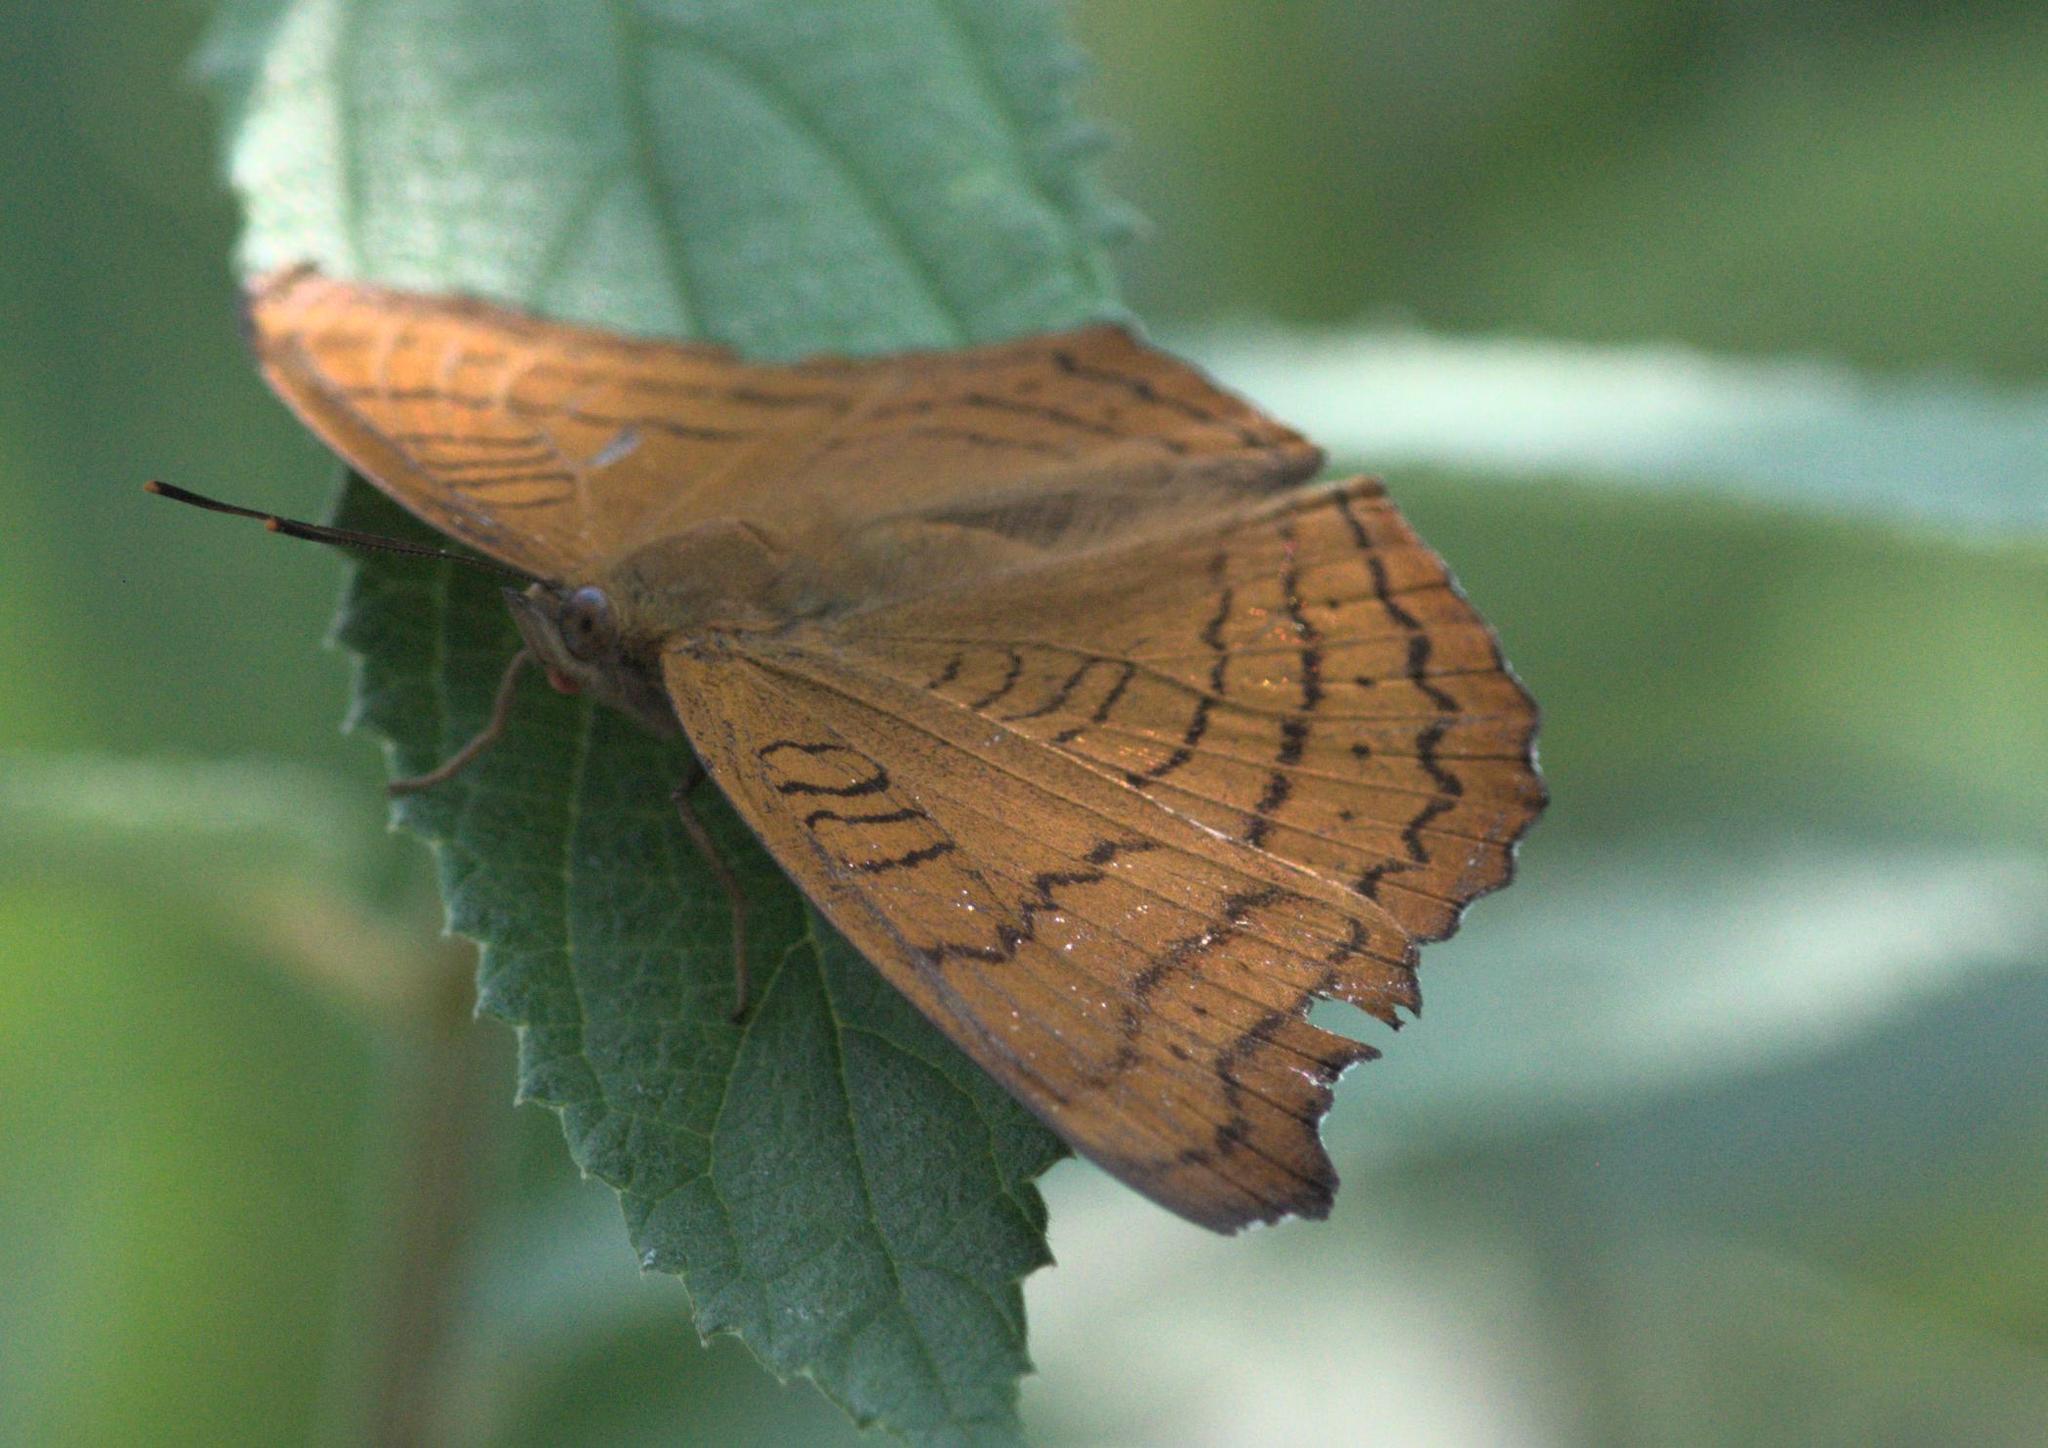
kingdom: Animalia
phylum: Arthropoda
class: Insecta
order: Lepidoptera
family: Nymphalidae
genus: Pseudergolis
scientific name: Pseudergolis wedah
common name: Tabby
